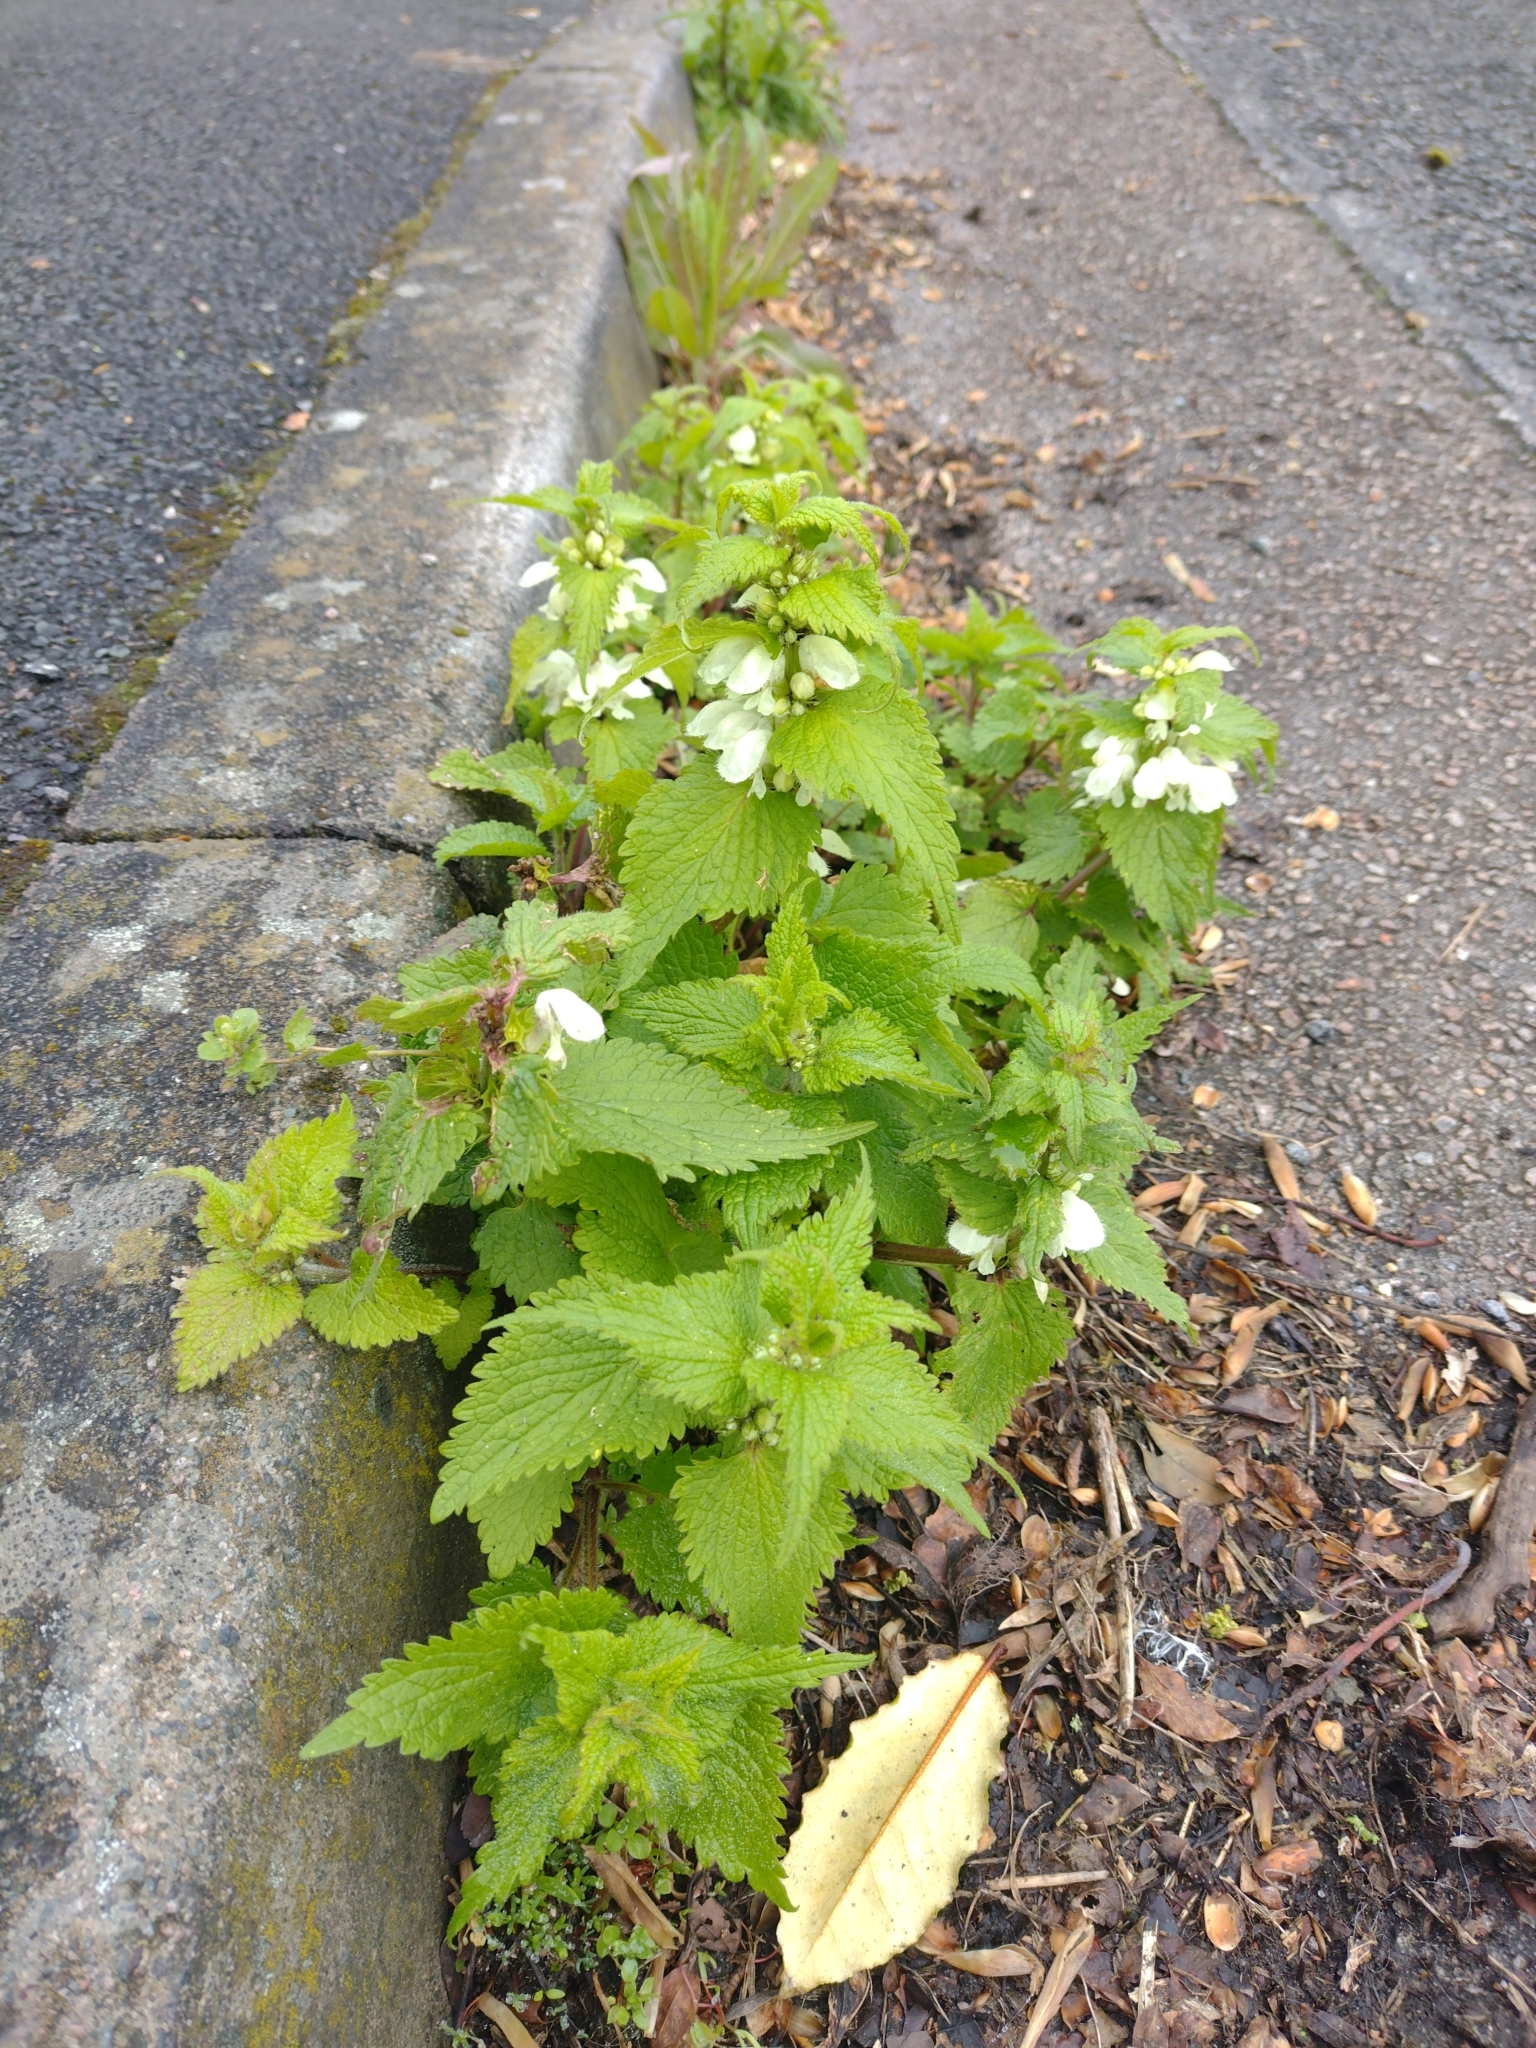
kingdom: Plantae
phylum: Tracheophyta
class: Magnoliopsida
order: Lamiales
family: Lamiaceae
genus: Lamium
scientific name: Lamium album
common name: White dead-nettle
